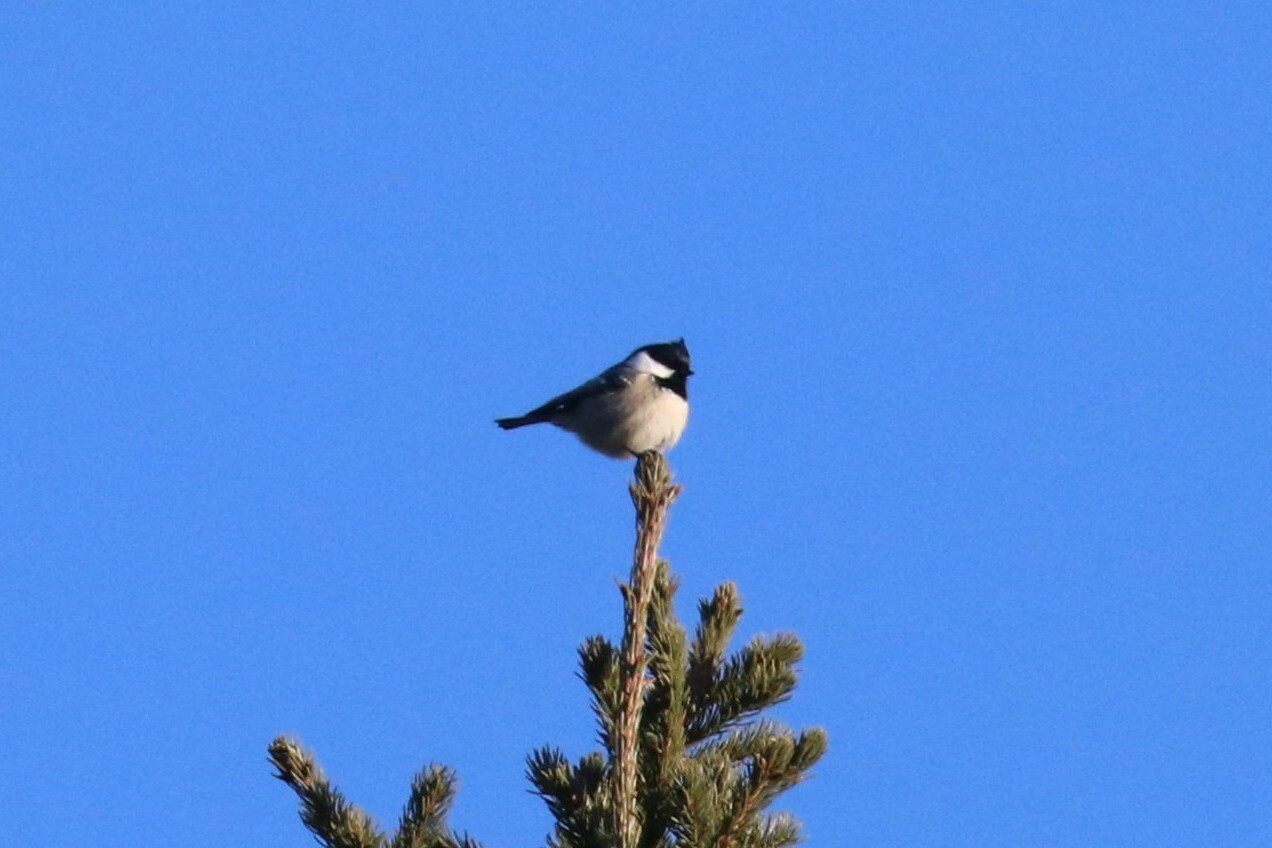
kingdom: Animalia
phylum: Chordata
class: Aves
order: Passeriformes
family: Paridae
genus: Periparus
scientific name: Periparus ater
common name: Coal tit
